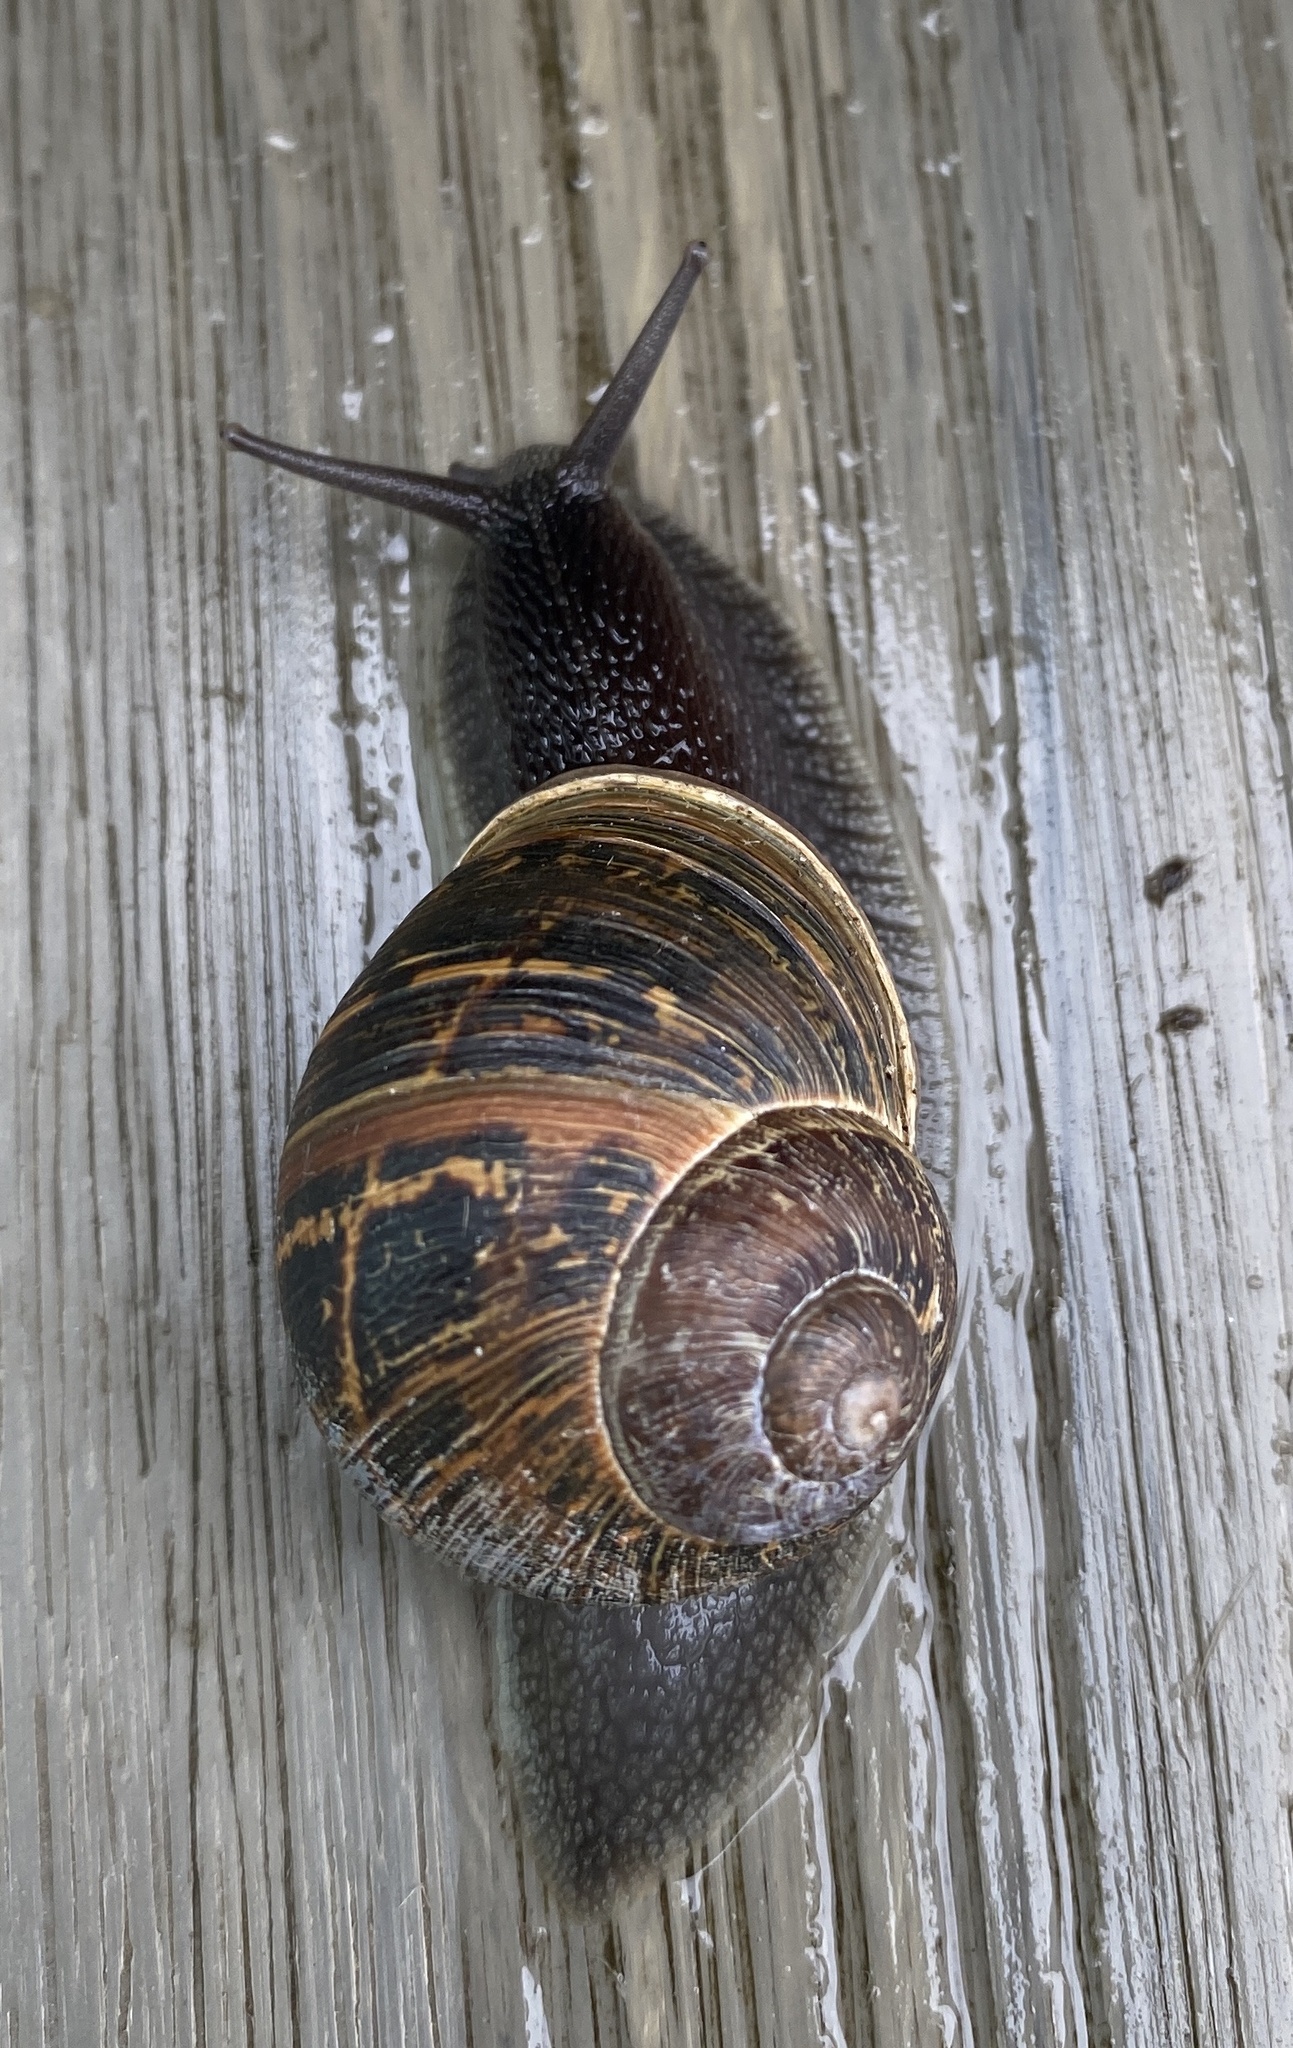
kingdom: Animalia
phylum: Mollusca
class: Gastropoda
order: Stylommatophora
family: Helicidae
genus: Cornu
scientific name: Cornu aspersum
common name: Brown garden snail
